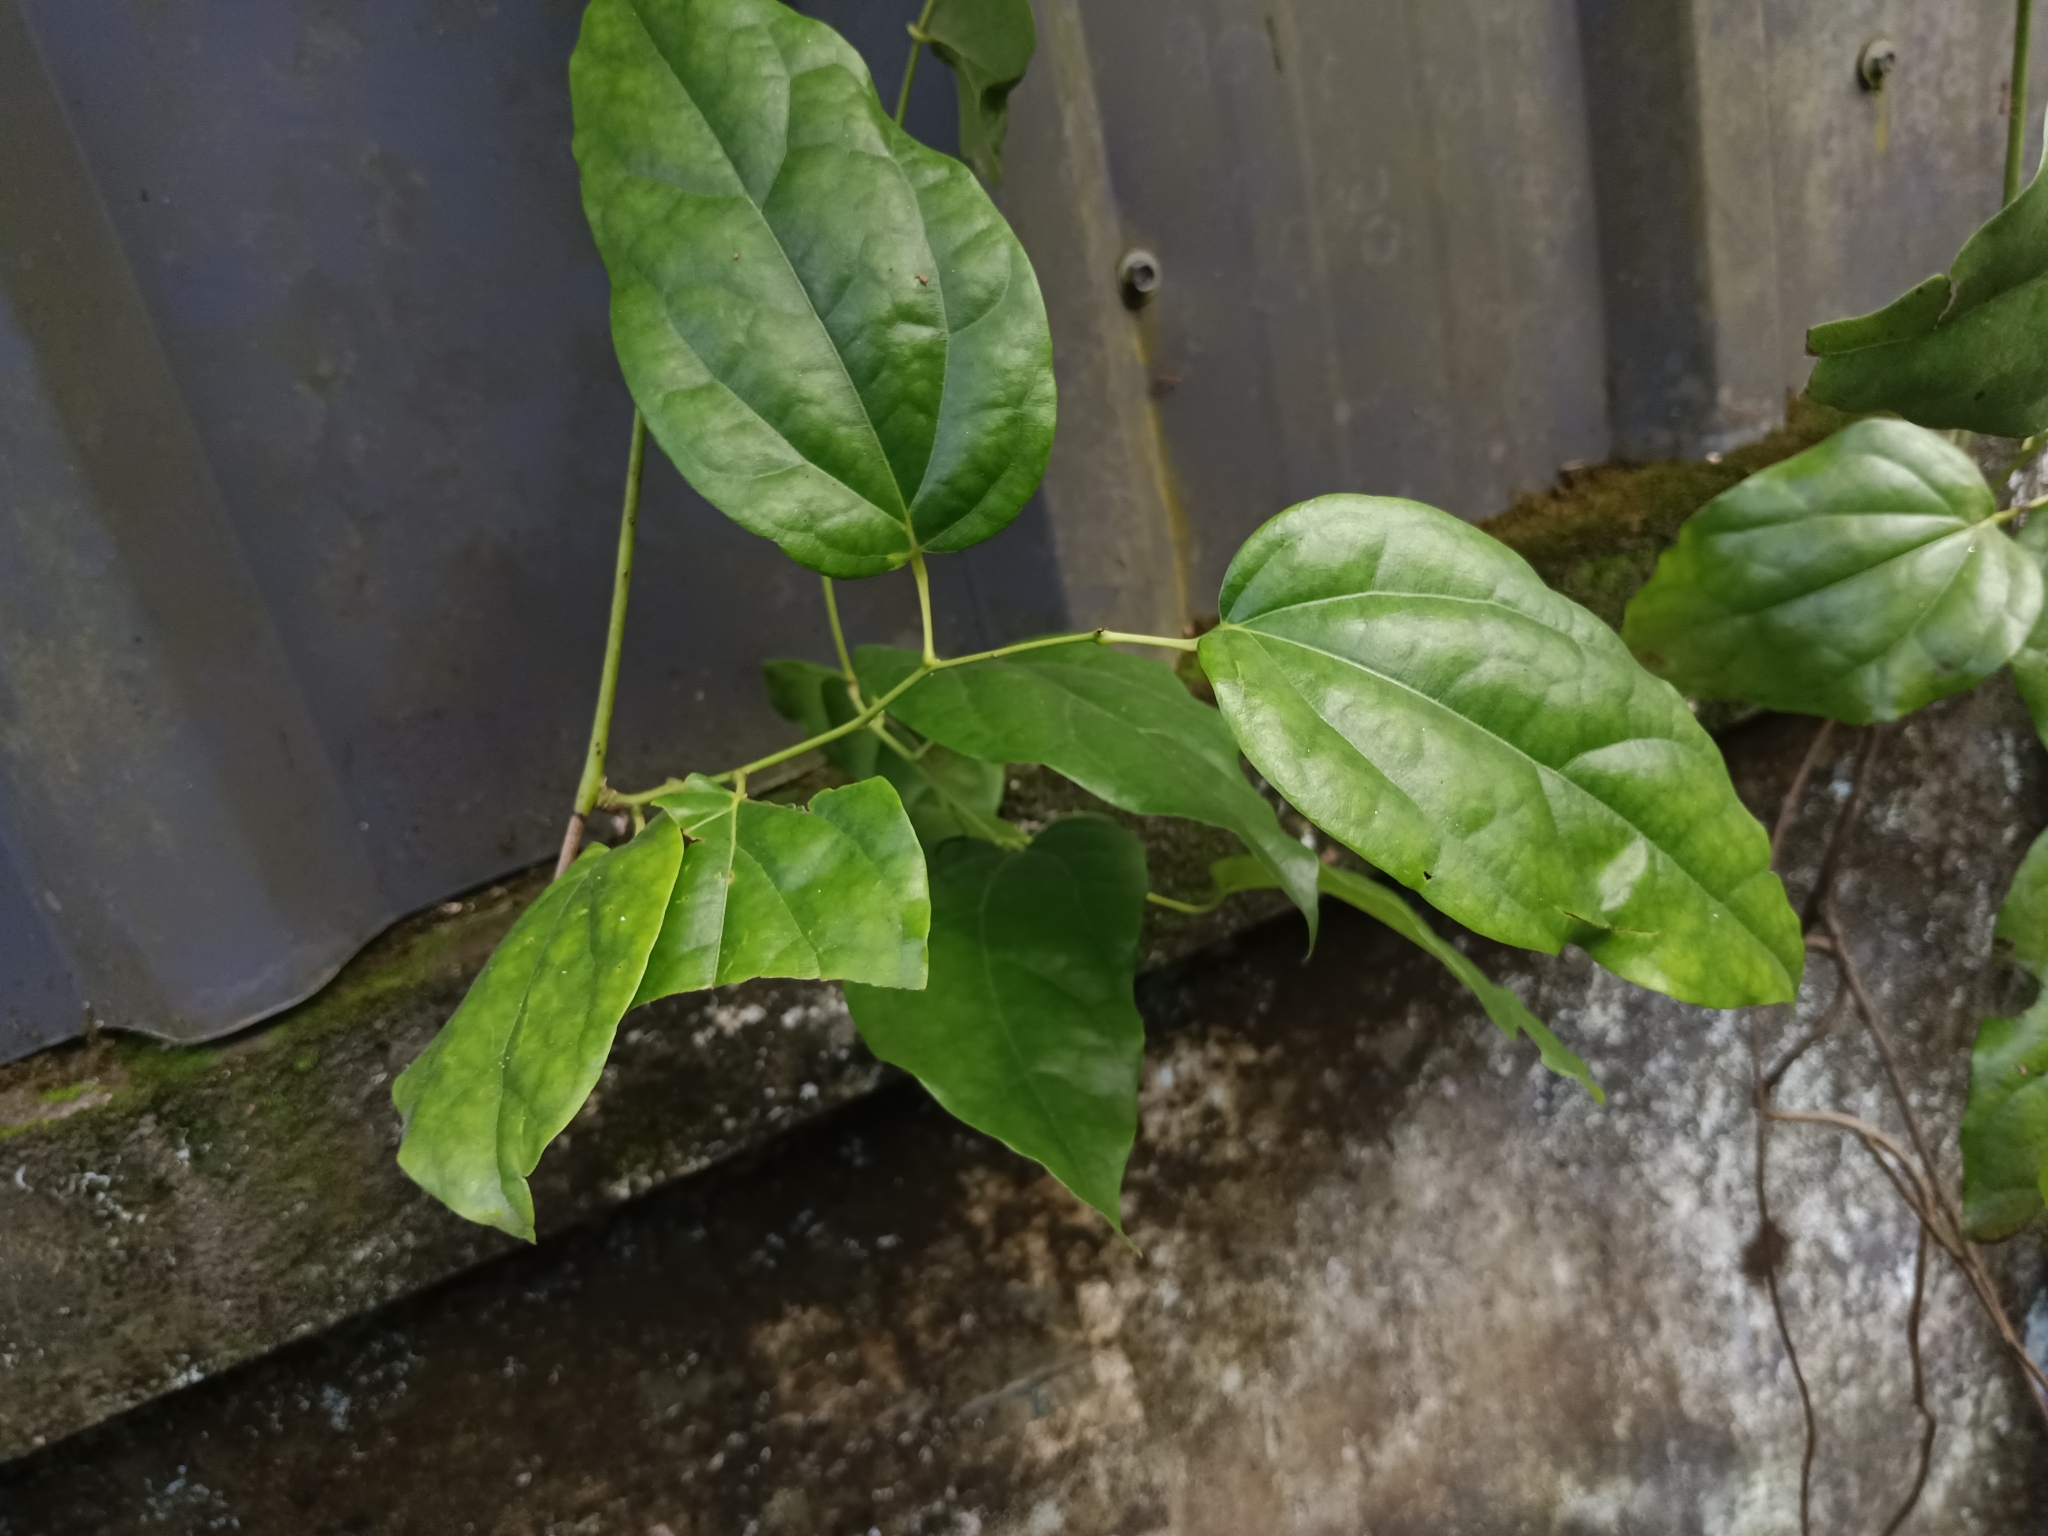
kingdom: Plantae
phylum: Tracheophyta
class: Magnoliopsida
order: Ranunculales
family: Menispermaceae
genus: Tiliacora
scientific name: Tiliacora acuminata
